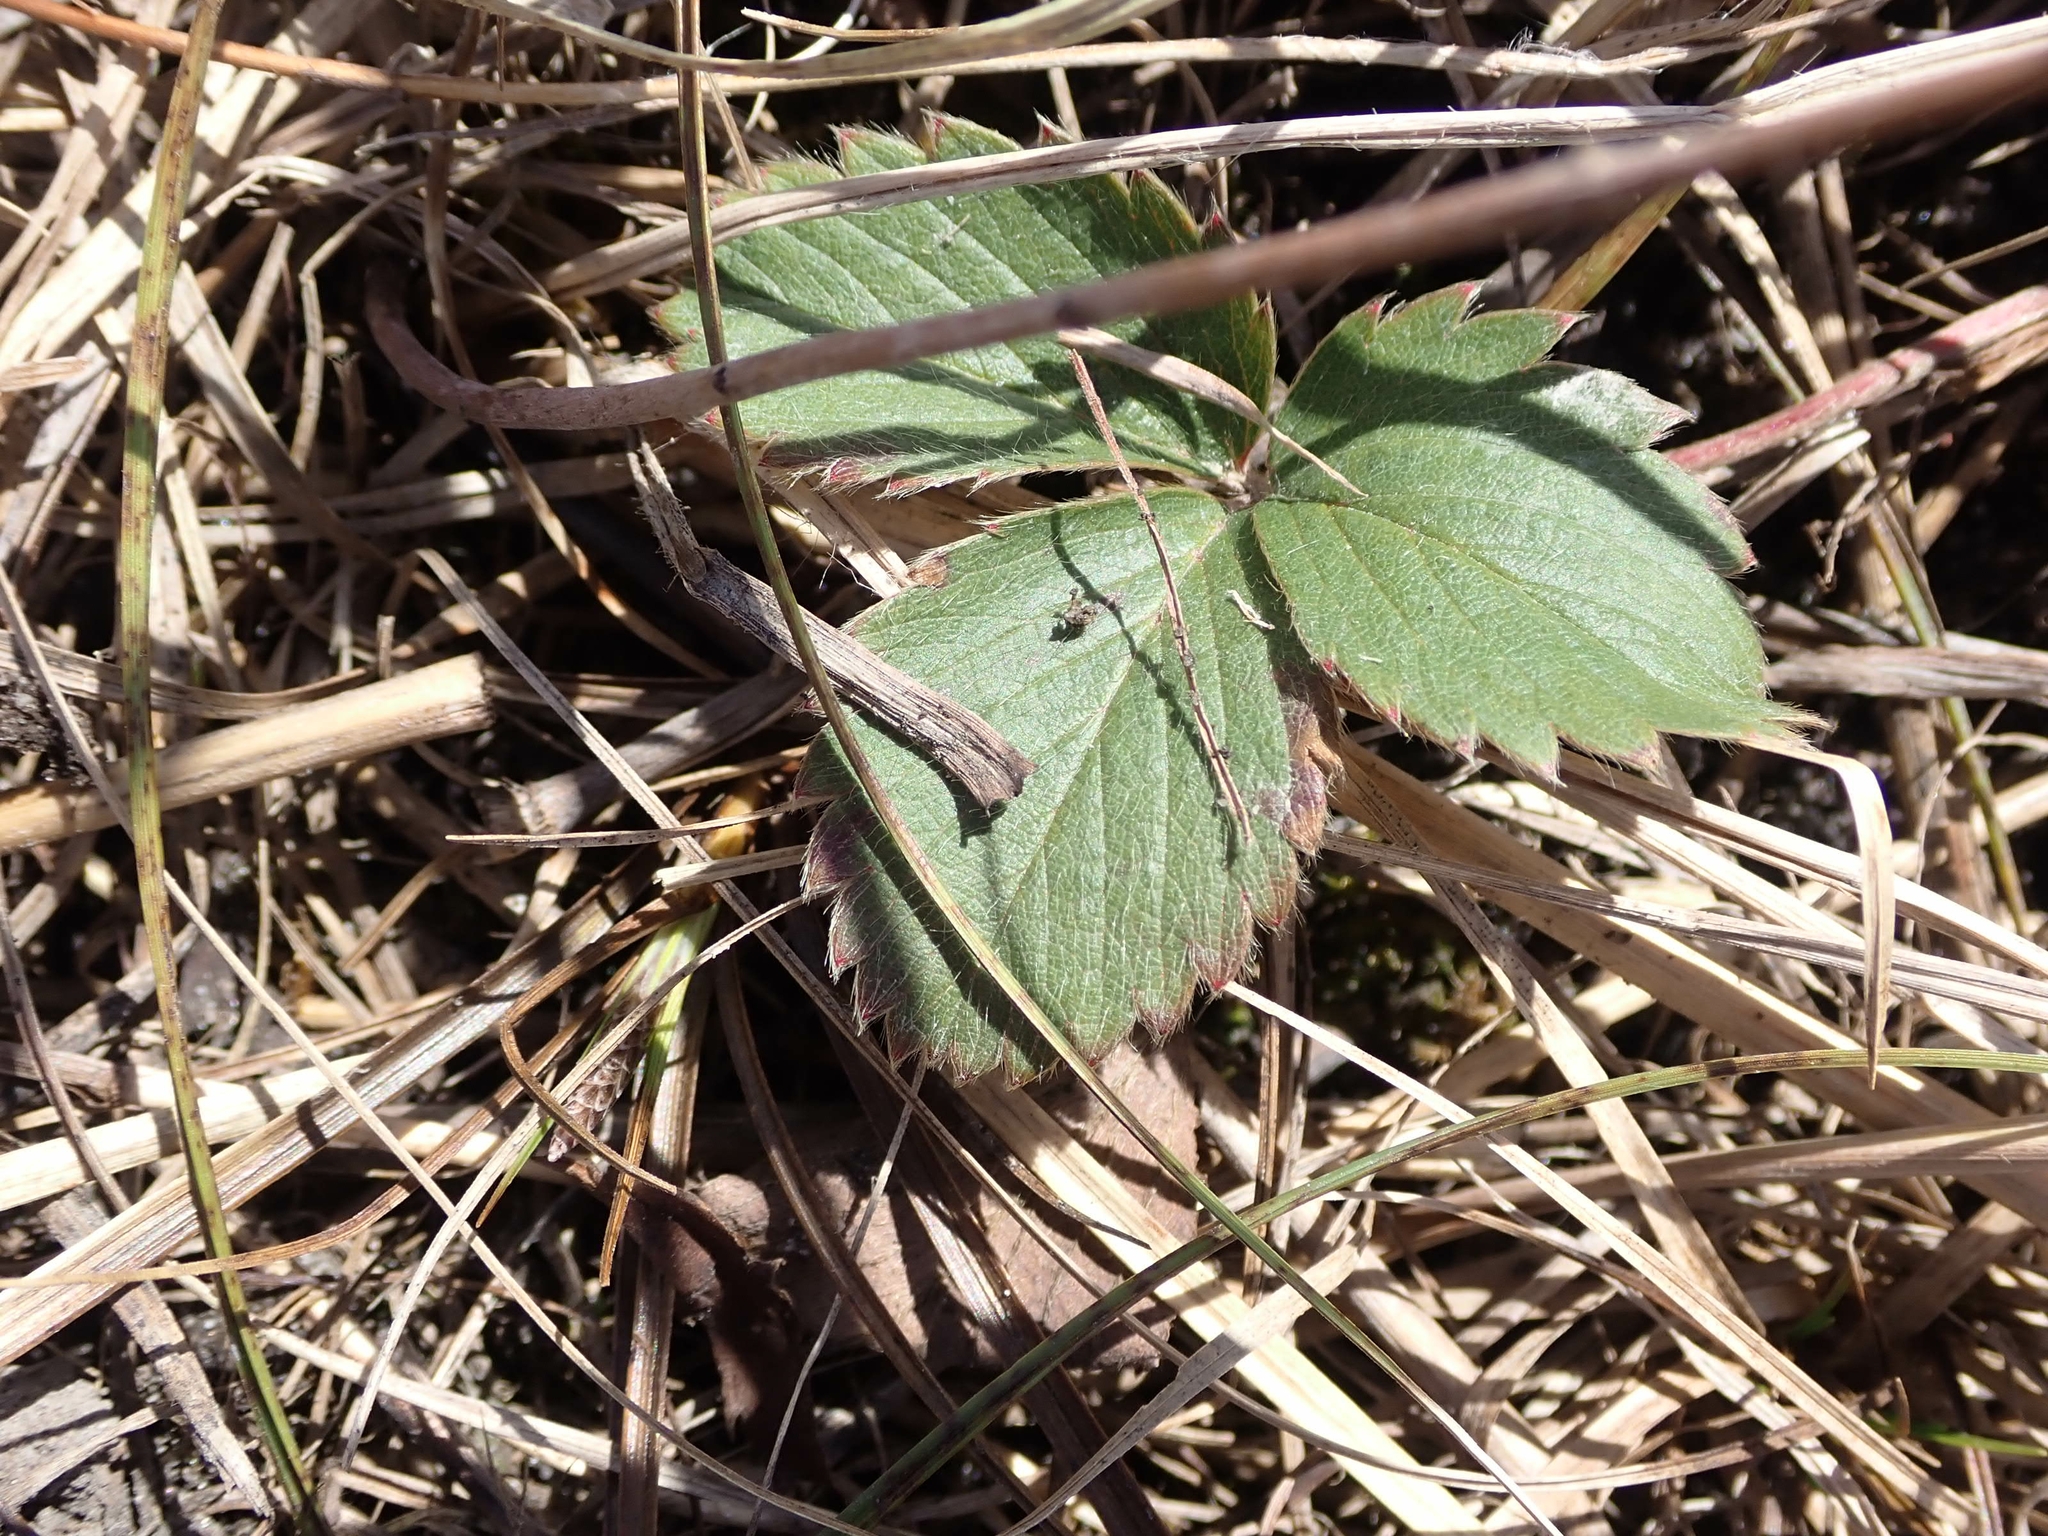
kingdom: Plantae
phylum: Tracheophyta
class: Magnoliopsida
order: Rosales
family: Rosaceae
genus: Fragaria
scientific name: Fragaria virginiana
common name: Thickleaved wild strawberry
